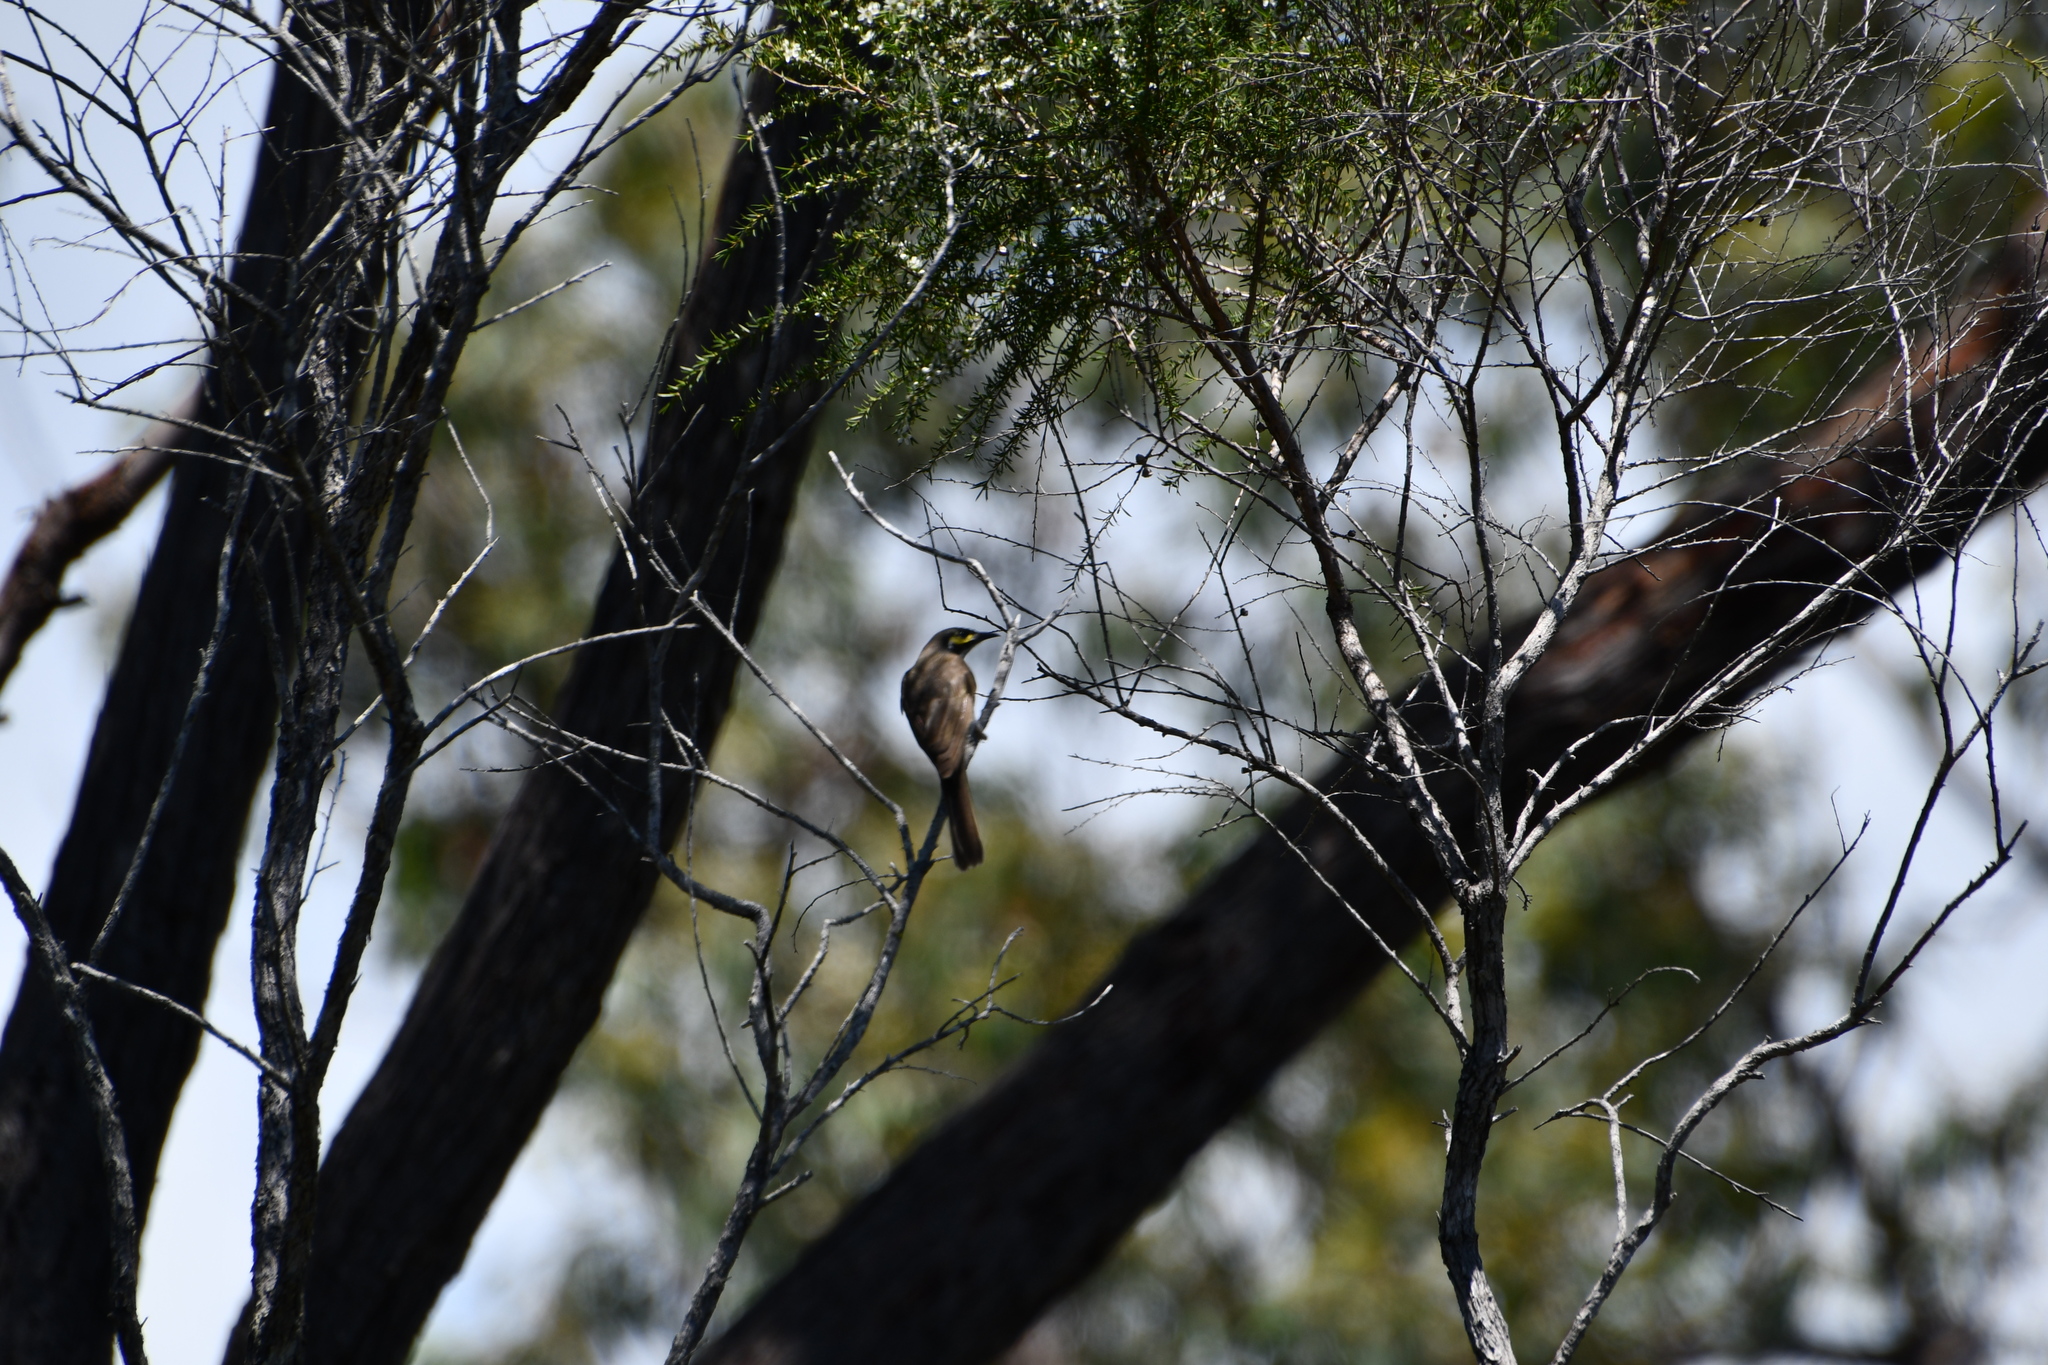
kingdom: Animalia
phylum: Chordata
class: Aves
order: Passeriformes
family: Meliphagidae
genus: Caligavis
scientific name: Caligavis chrysops
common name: Yellow-faced honeyeater
